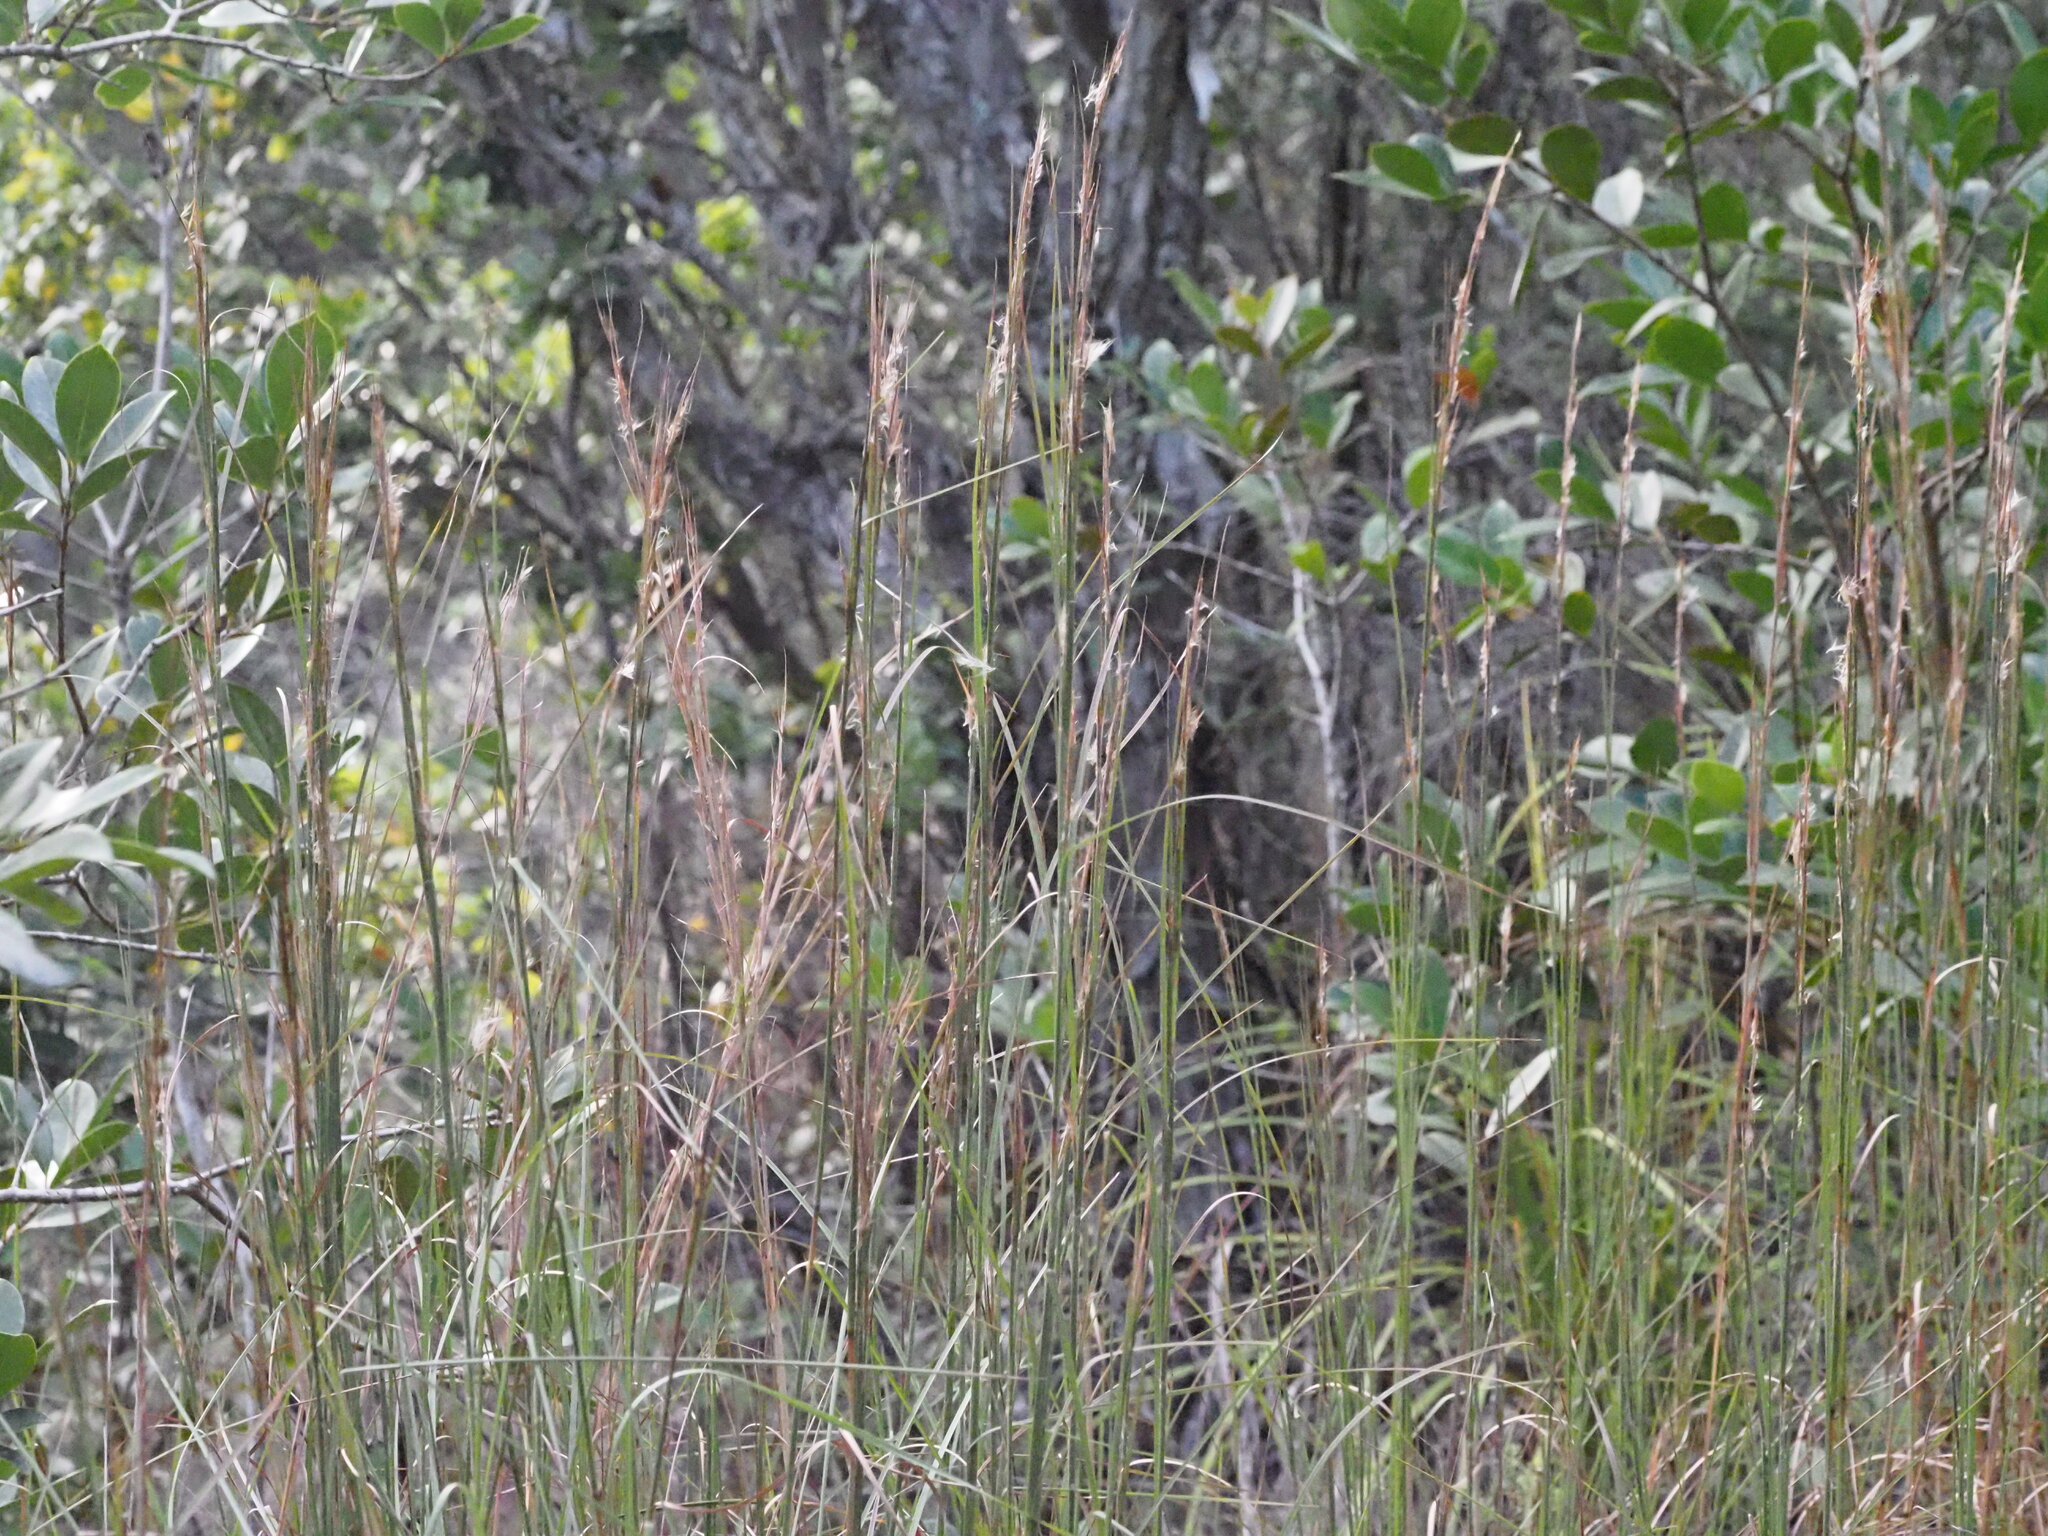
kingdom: Plantae
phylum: Tracheophyta
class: Liliopsida
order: Poales
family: Poaceae
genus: Andropogon
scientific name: Andropogon virginicus
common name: Broomsedge bluestem
